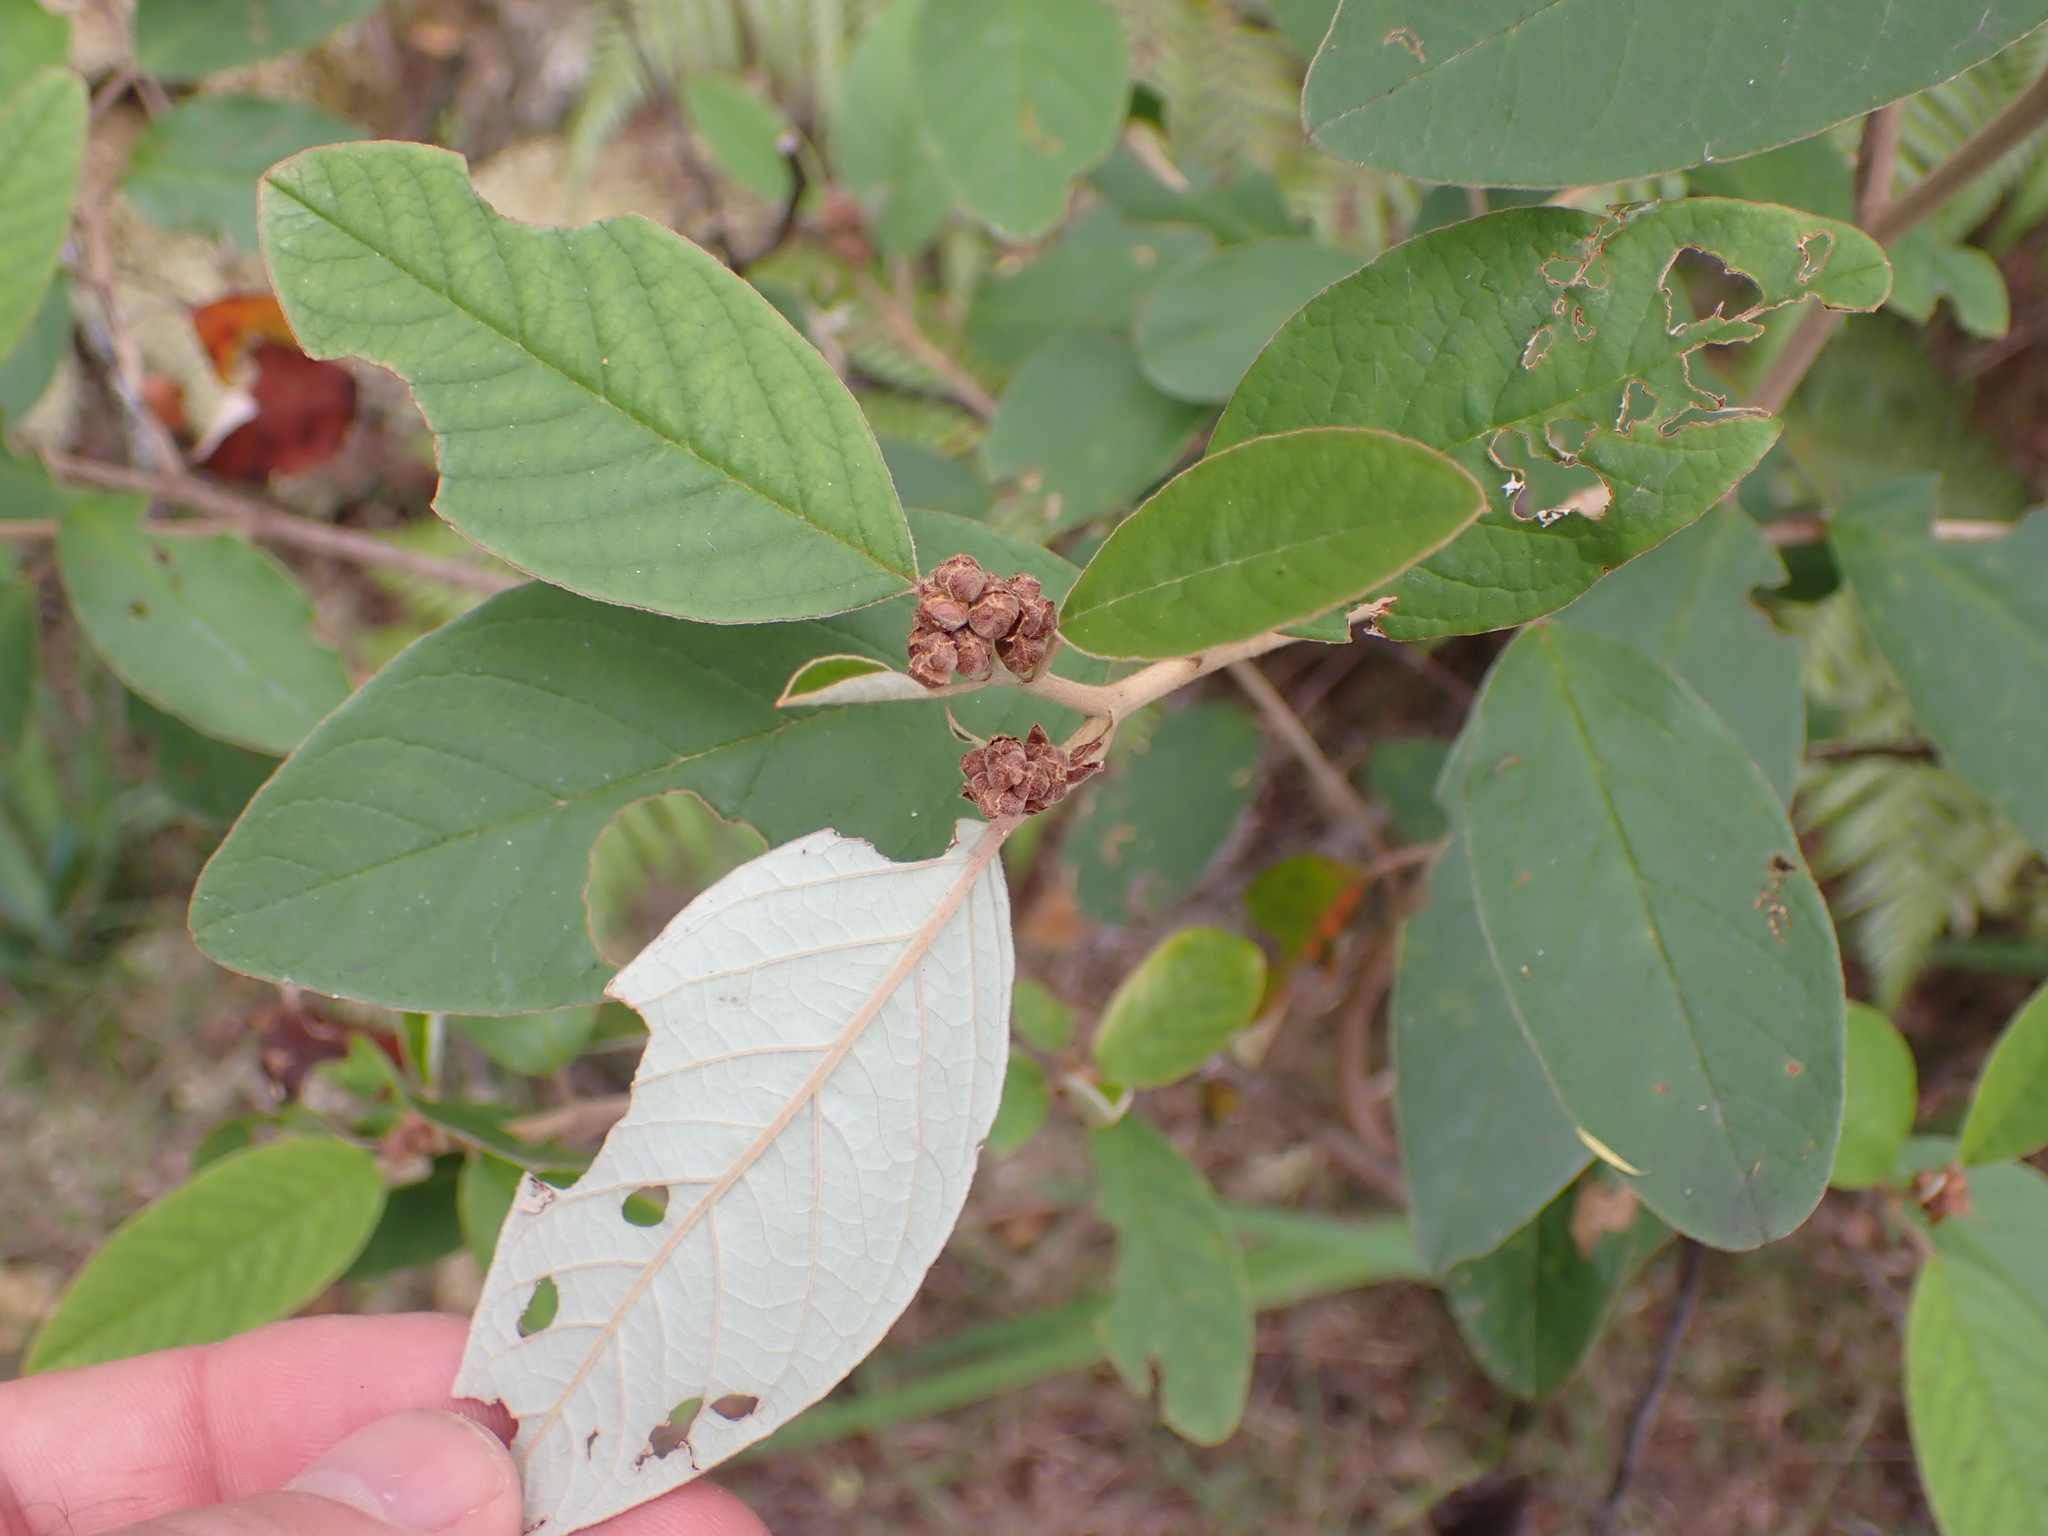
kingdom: Plantae
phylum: Tracheophyta
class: Magnoliopsida
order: Rosales
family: Rhamnaceae
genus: Pomaderris
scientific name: Pomaderris kumeraho
